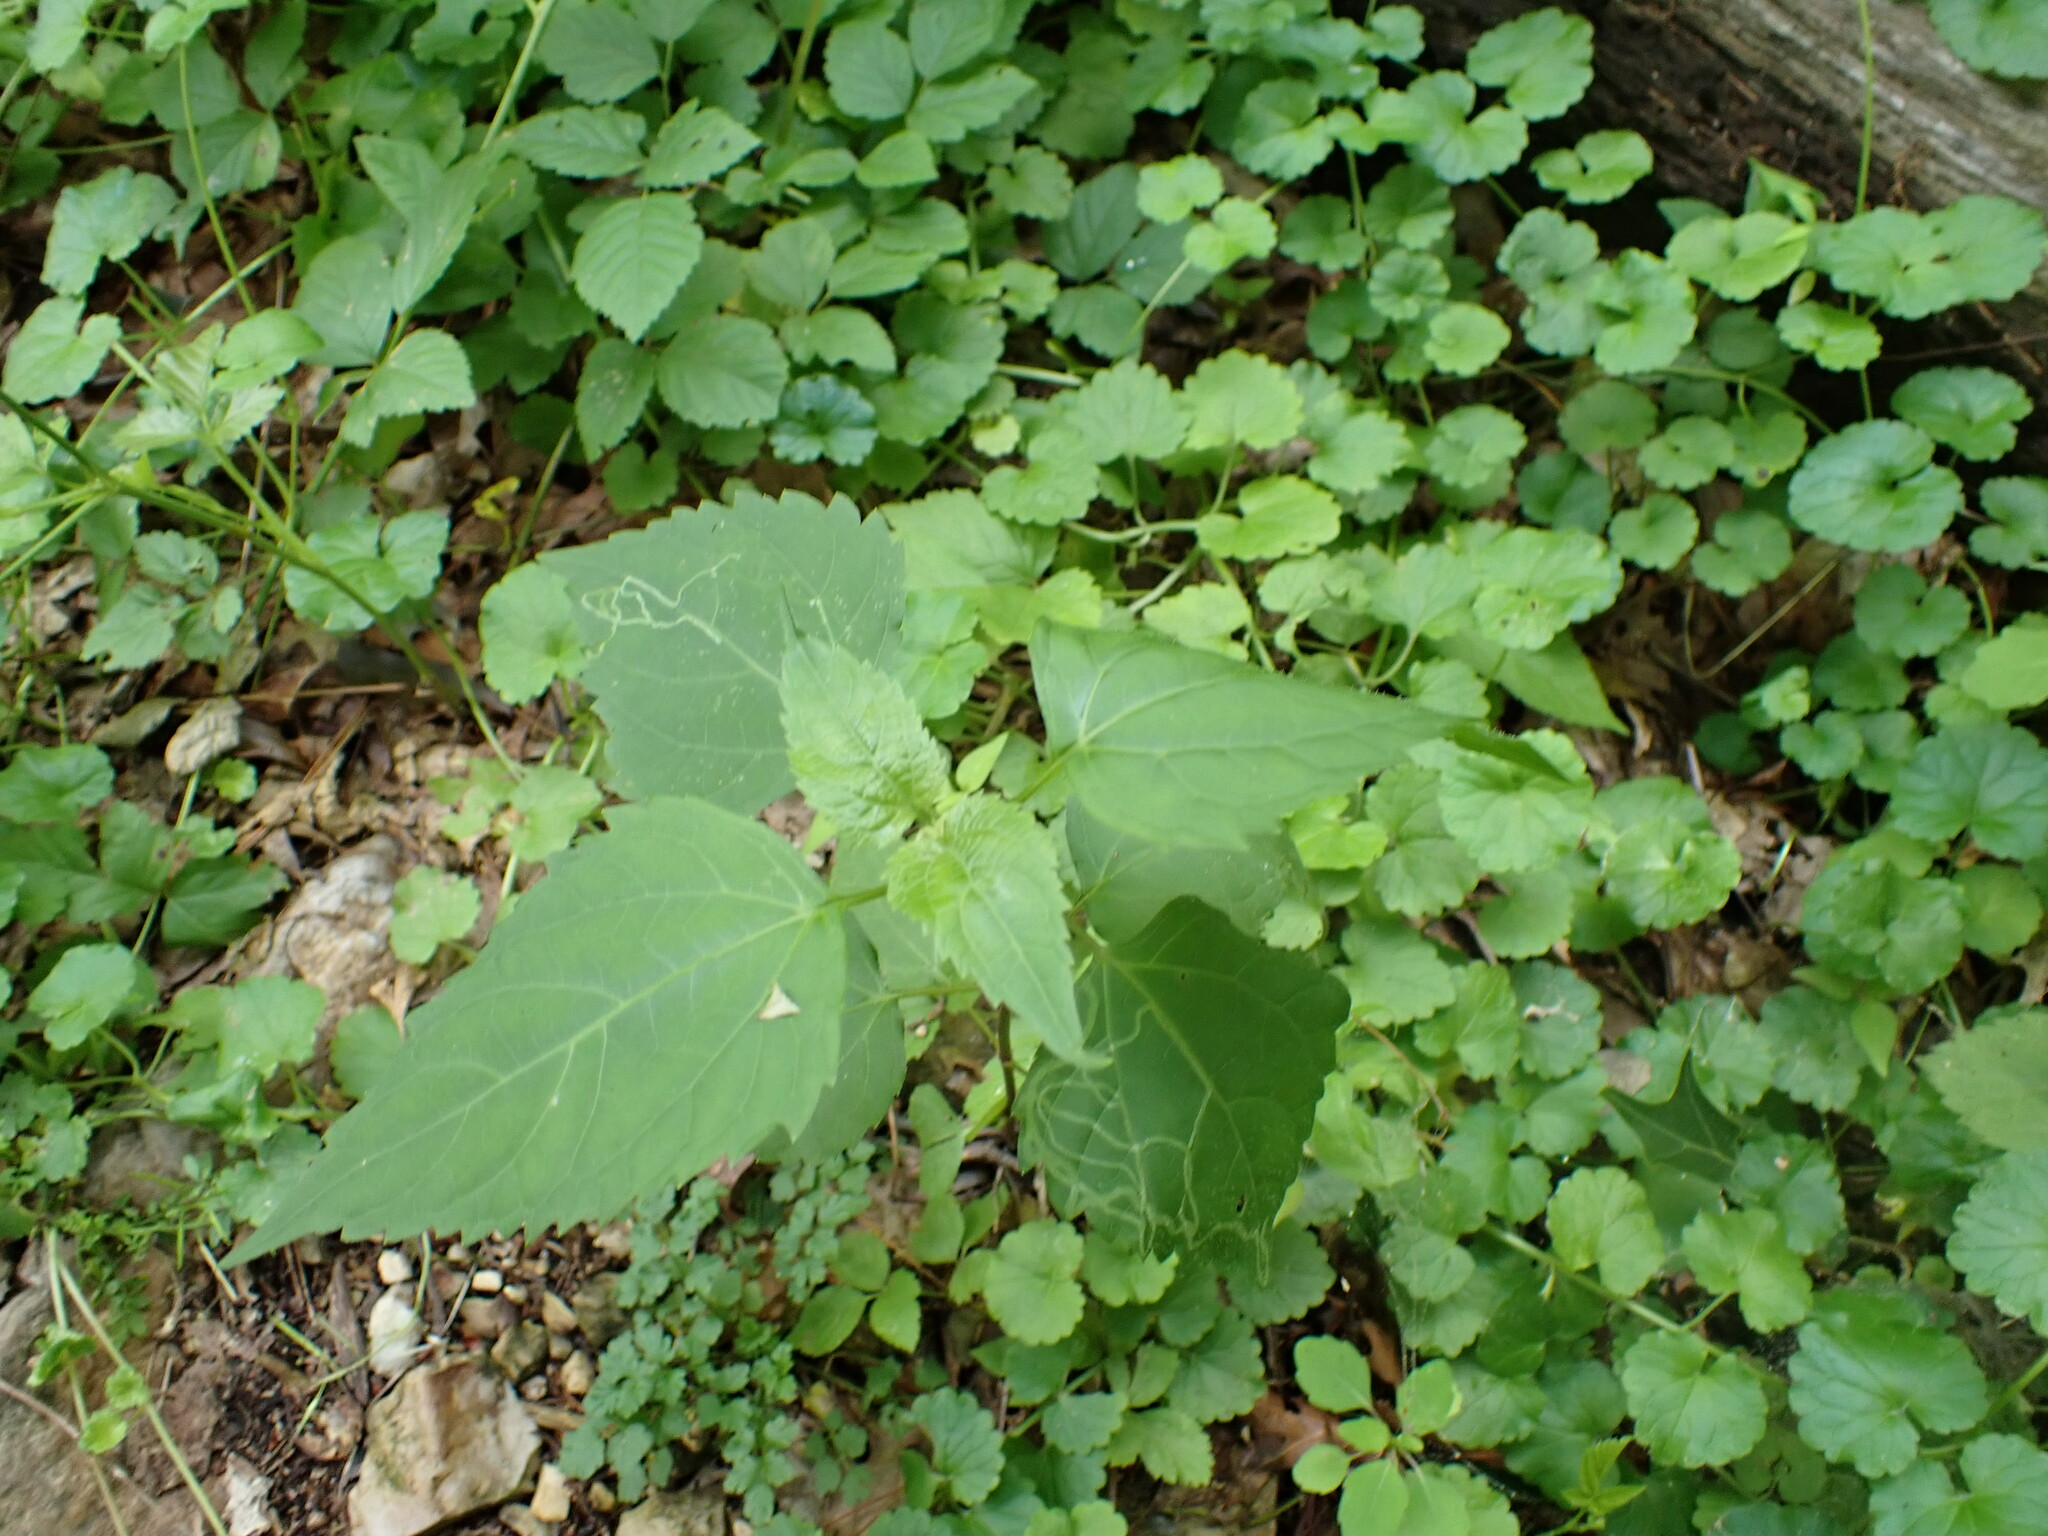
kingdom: Plantae
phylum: Tracheophyta
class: Magnoliopsida
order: Asterales
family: Asteraceae
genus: Ageratina
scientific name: Ageratina altissima
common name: White snakeroot
